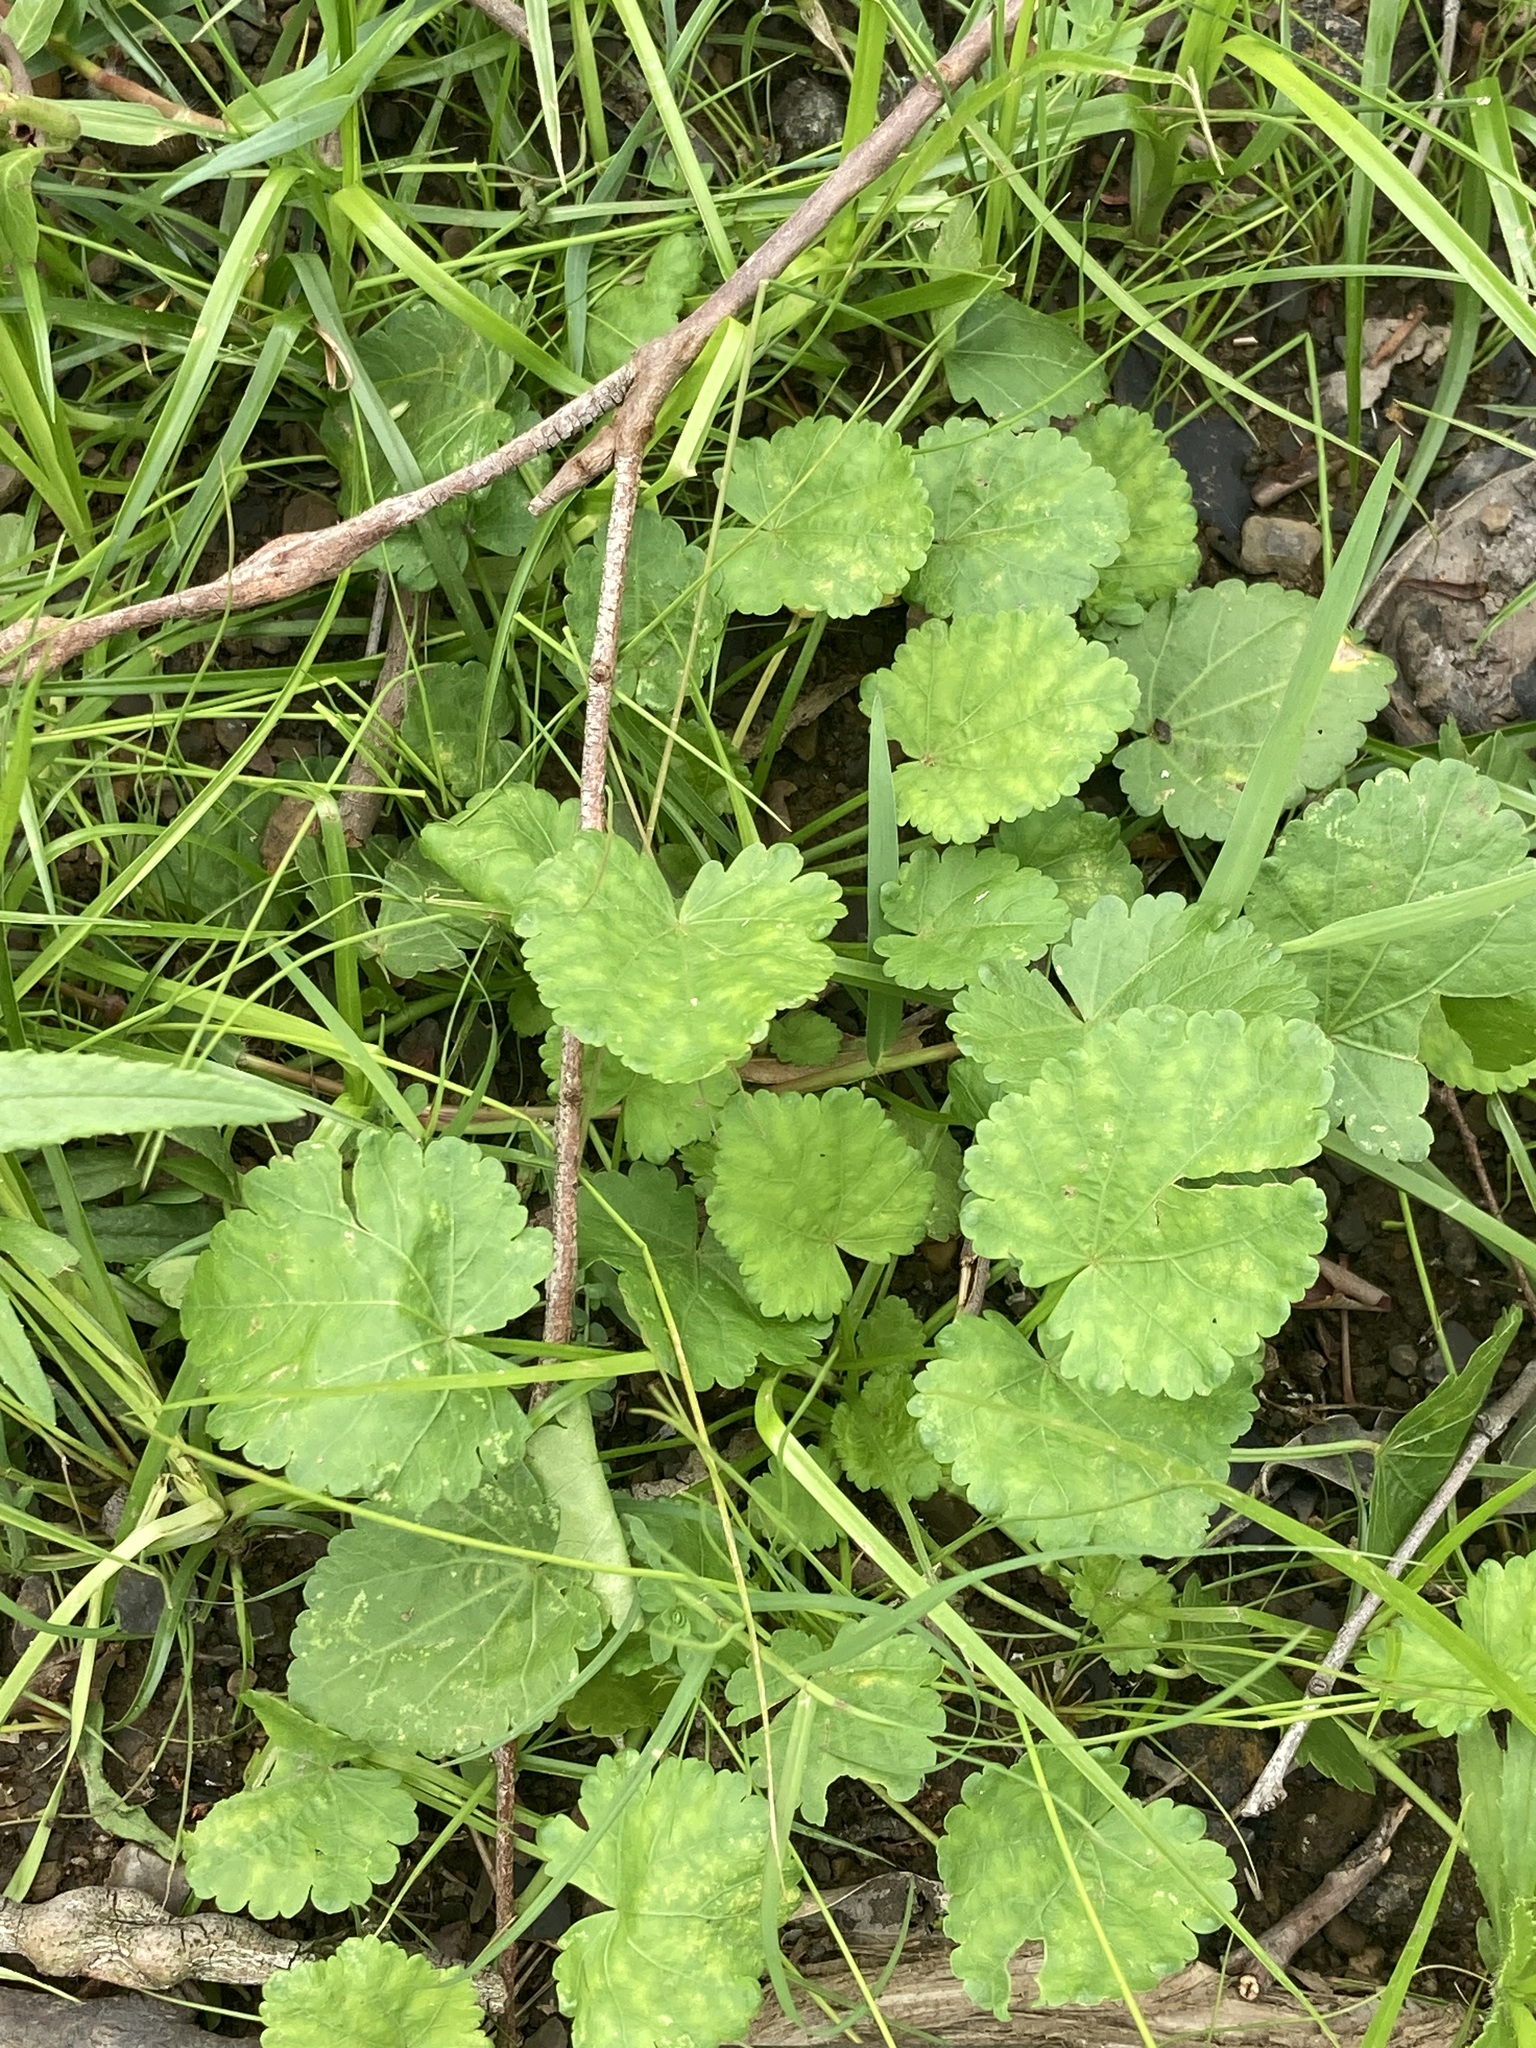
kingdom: Plantae
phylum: Tracheophyta
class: Magnoliopsida
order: Malvales
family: Malvaceae
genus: Modiola
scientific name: Modiola caroliniana
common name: Carolina bristlemallow
